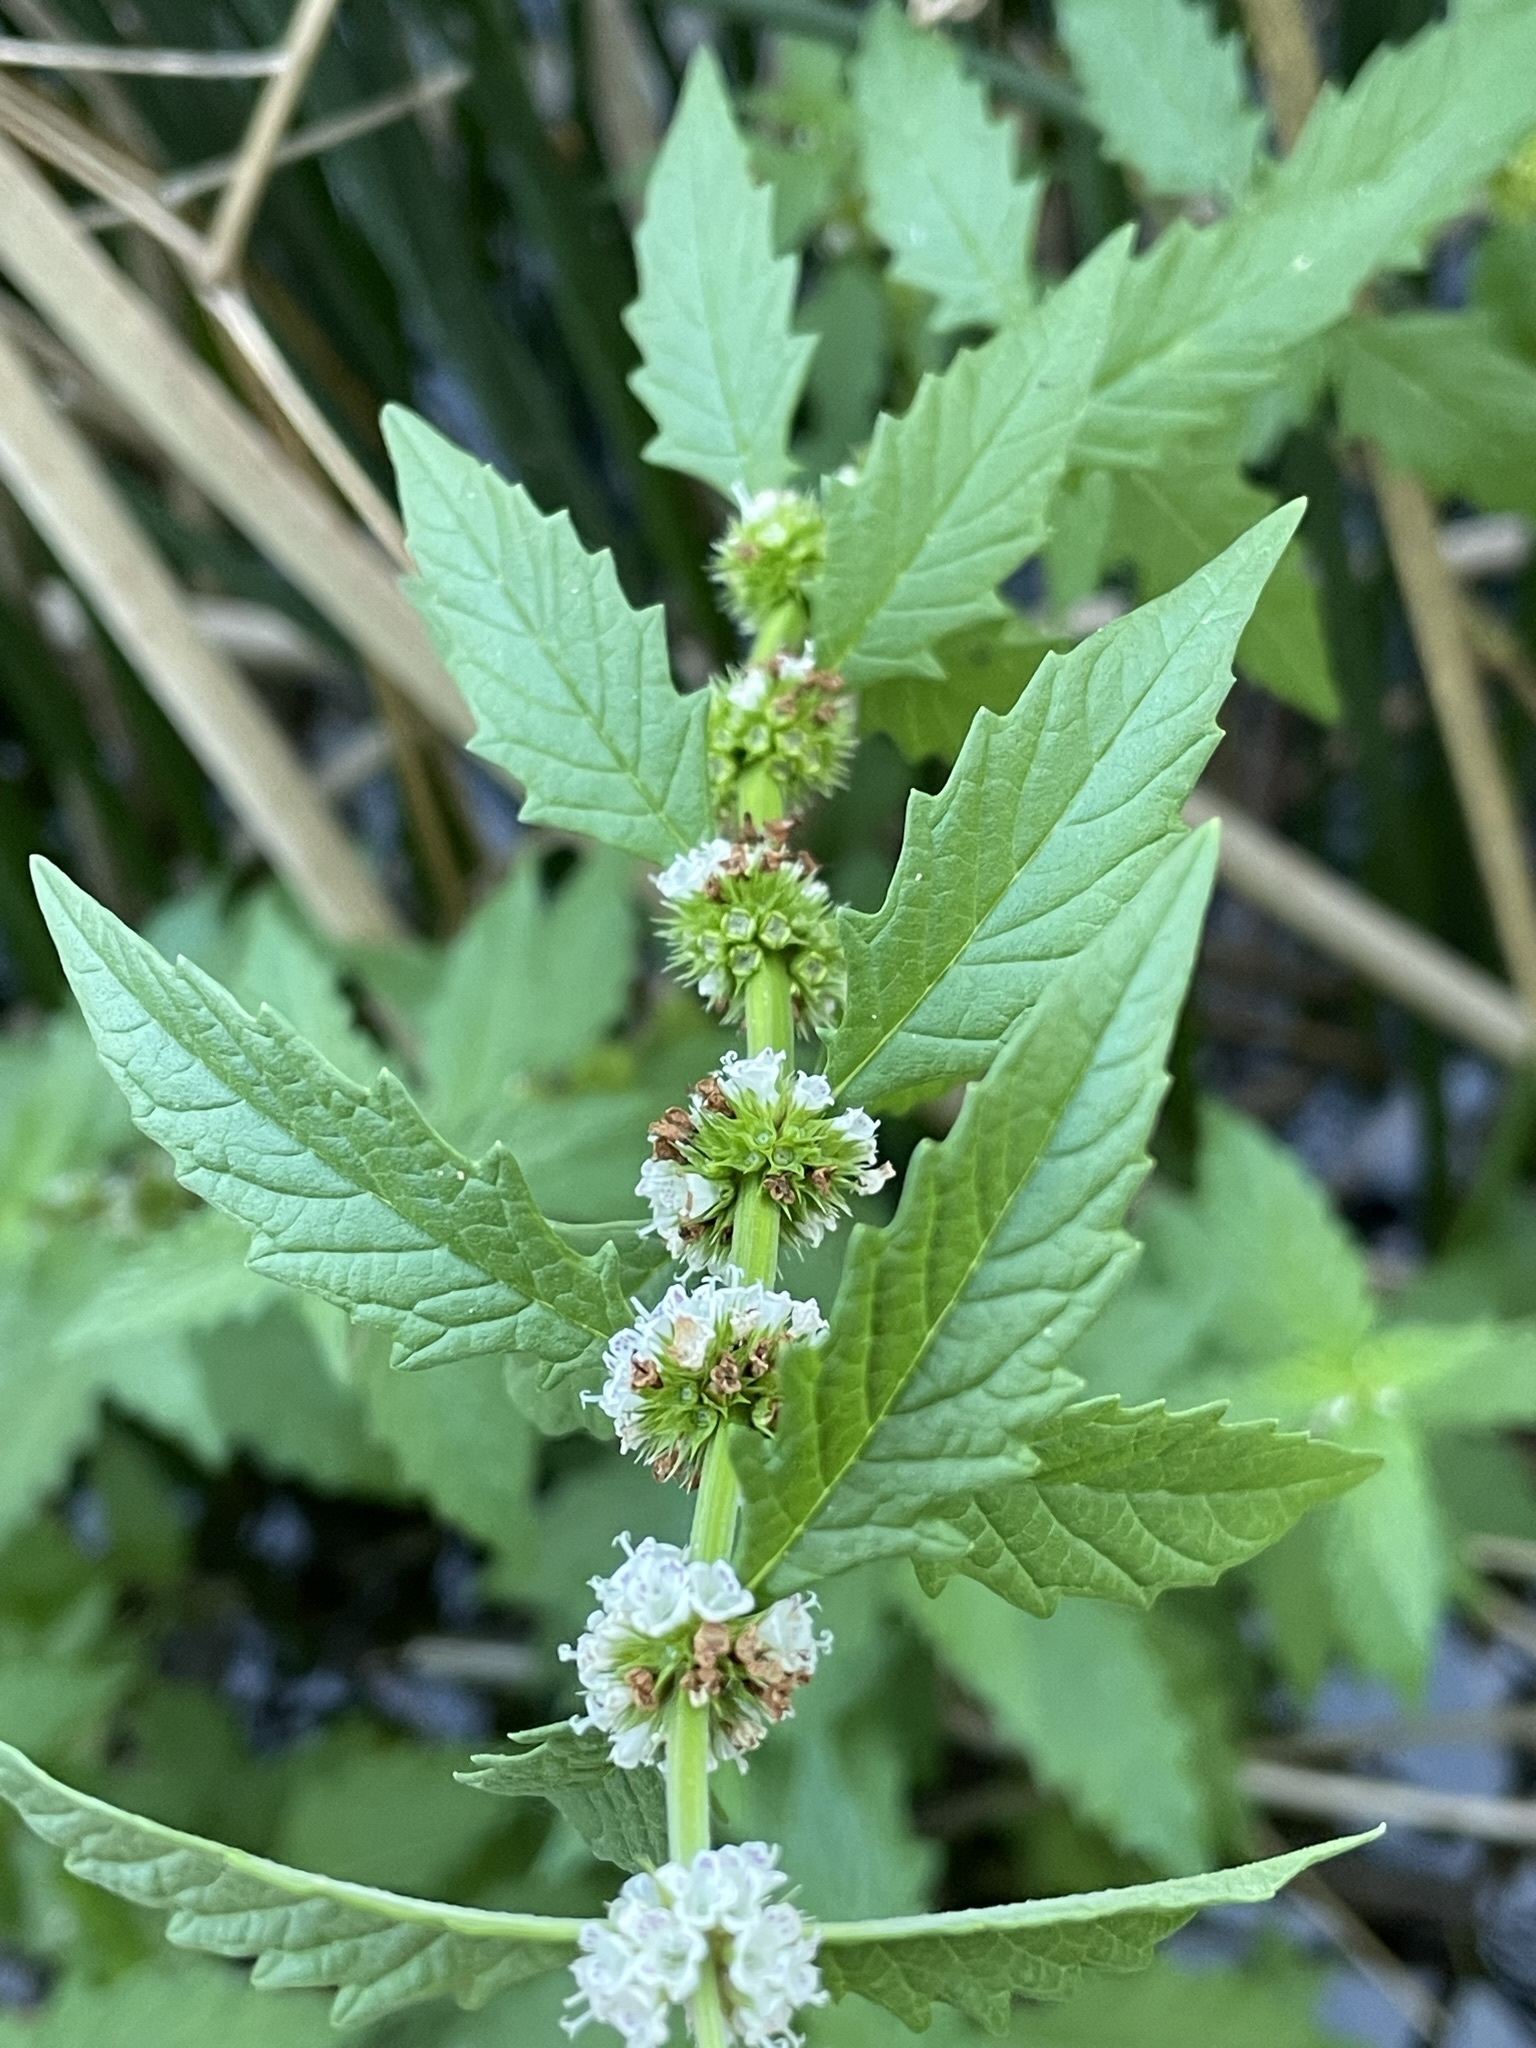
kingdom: Plantae
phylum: Tracheophyta
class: Magnoliopsida
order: Lamiales
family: Lamiaceae
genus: Lycopus
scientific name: Lycopus europaeus
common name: European bugleweed
